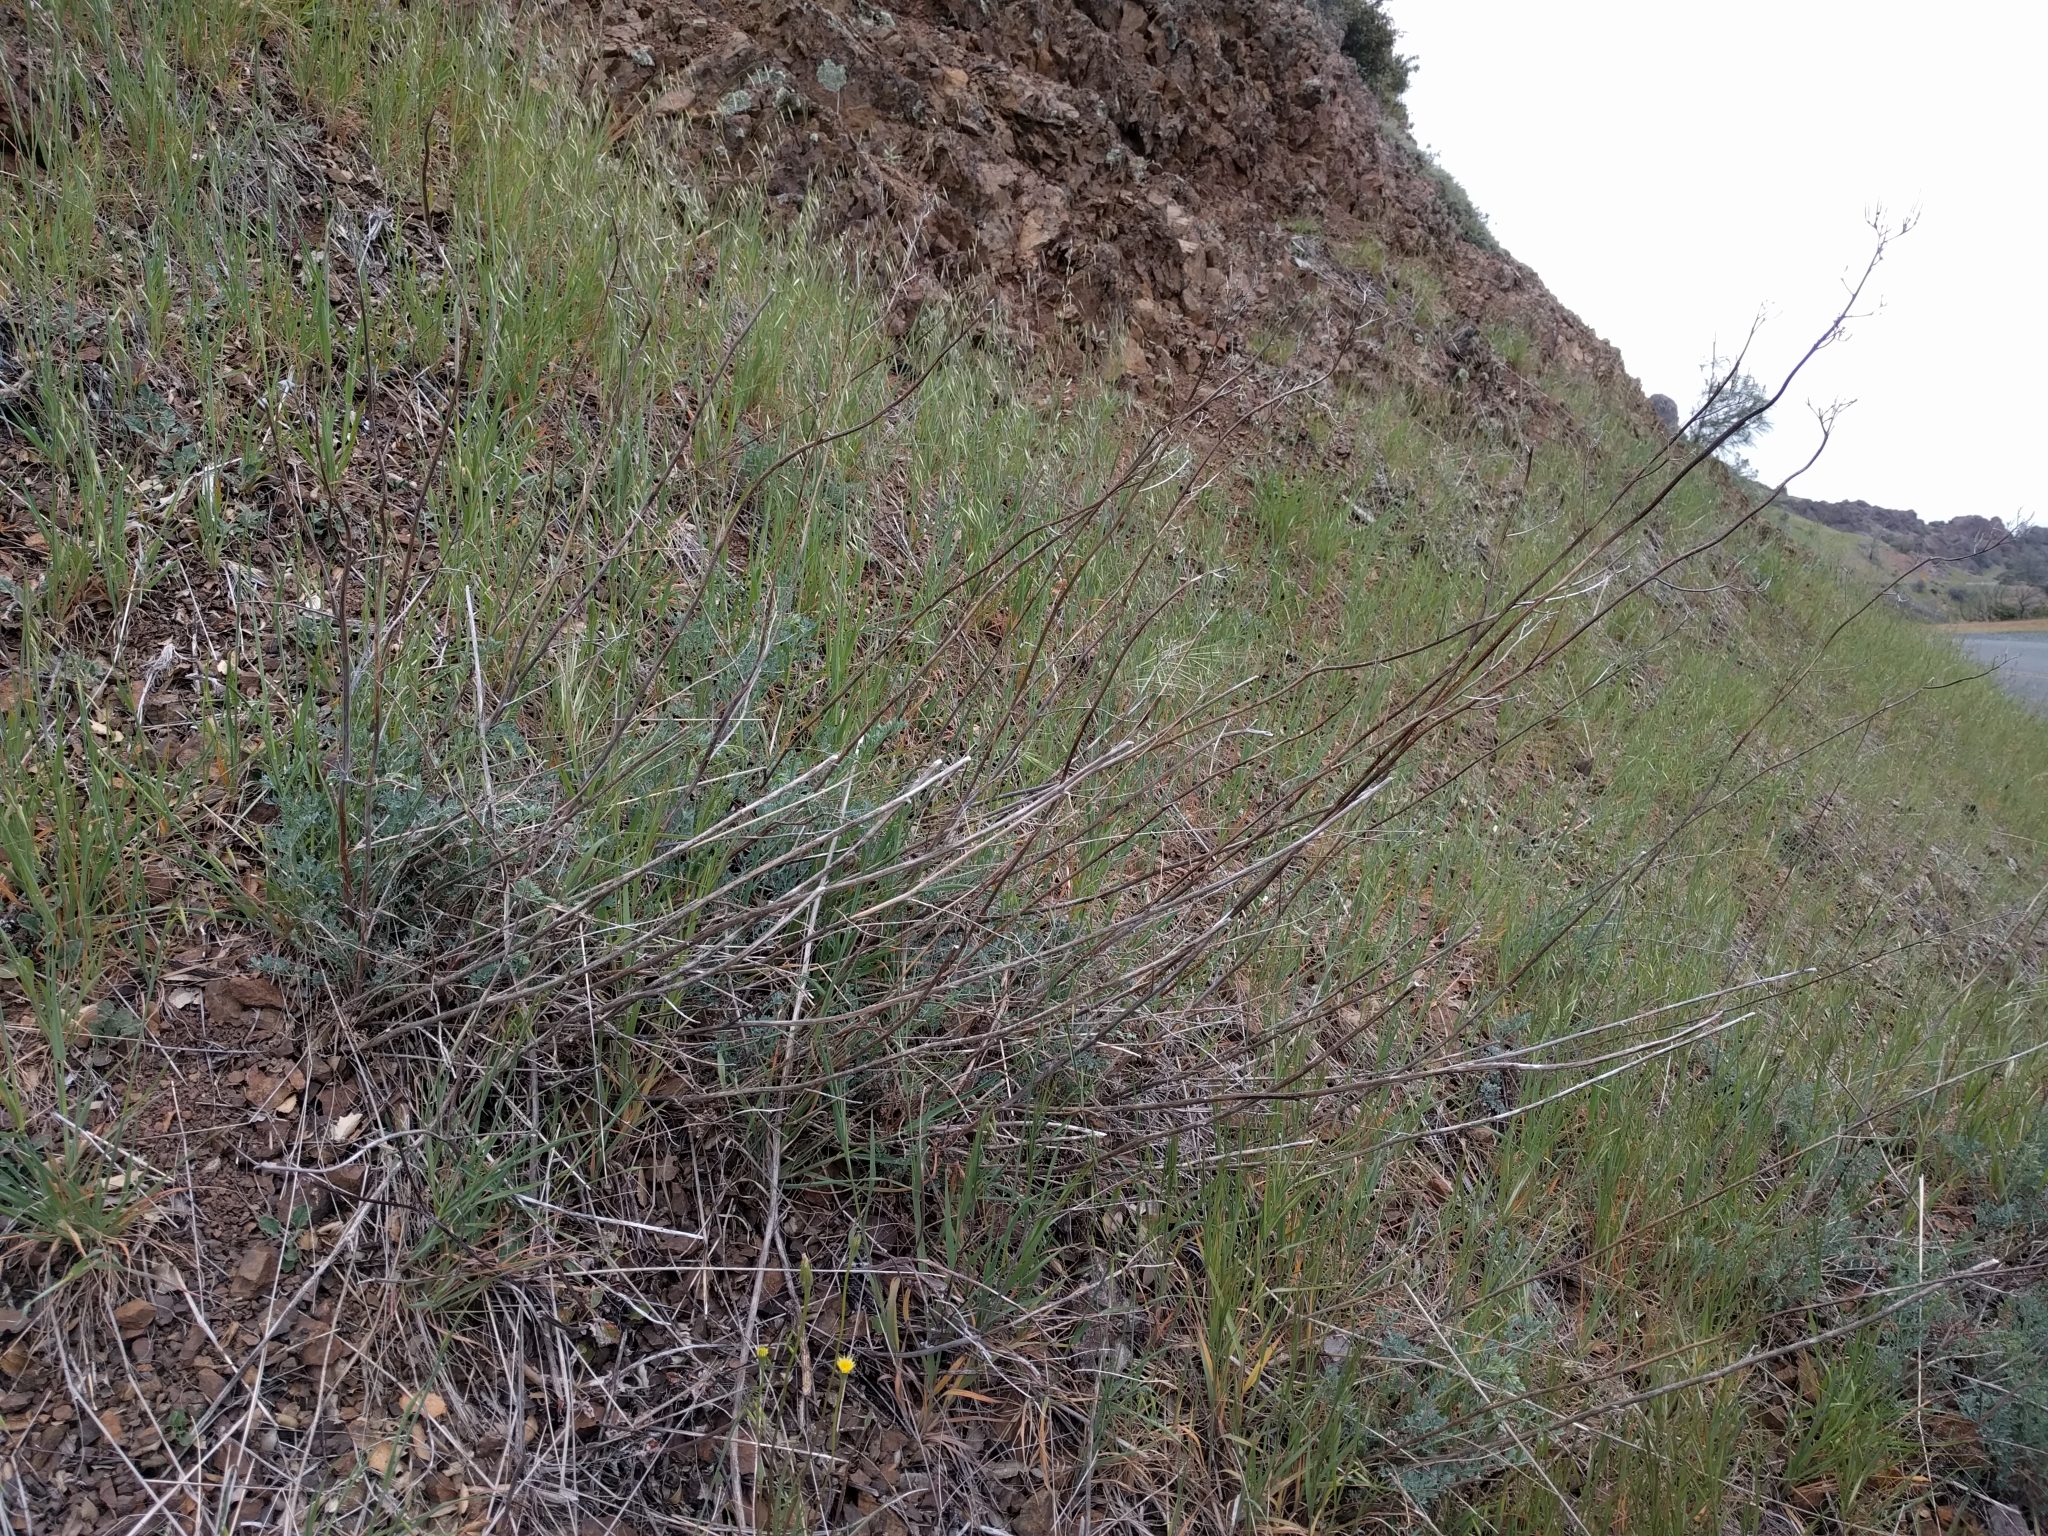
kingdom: Plantae
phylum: Tracheophyta
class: Magnoliopsida
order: Ranunculales
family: Papaveraceae
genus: Ehrendorferia
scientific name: Ehrendorferia chrysantha
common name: Golden eardrops
